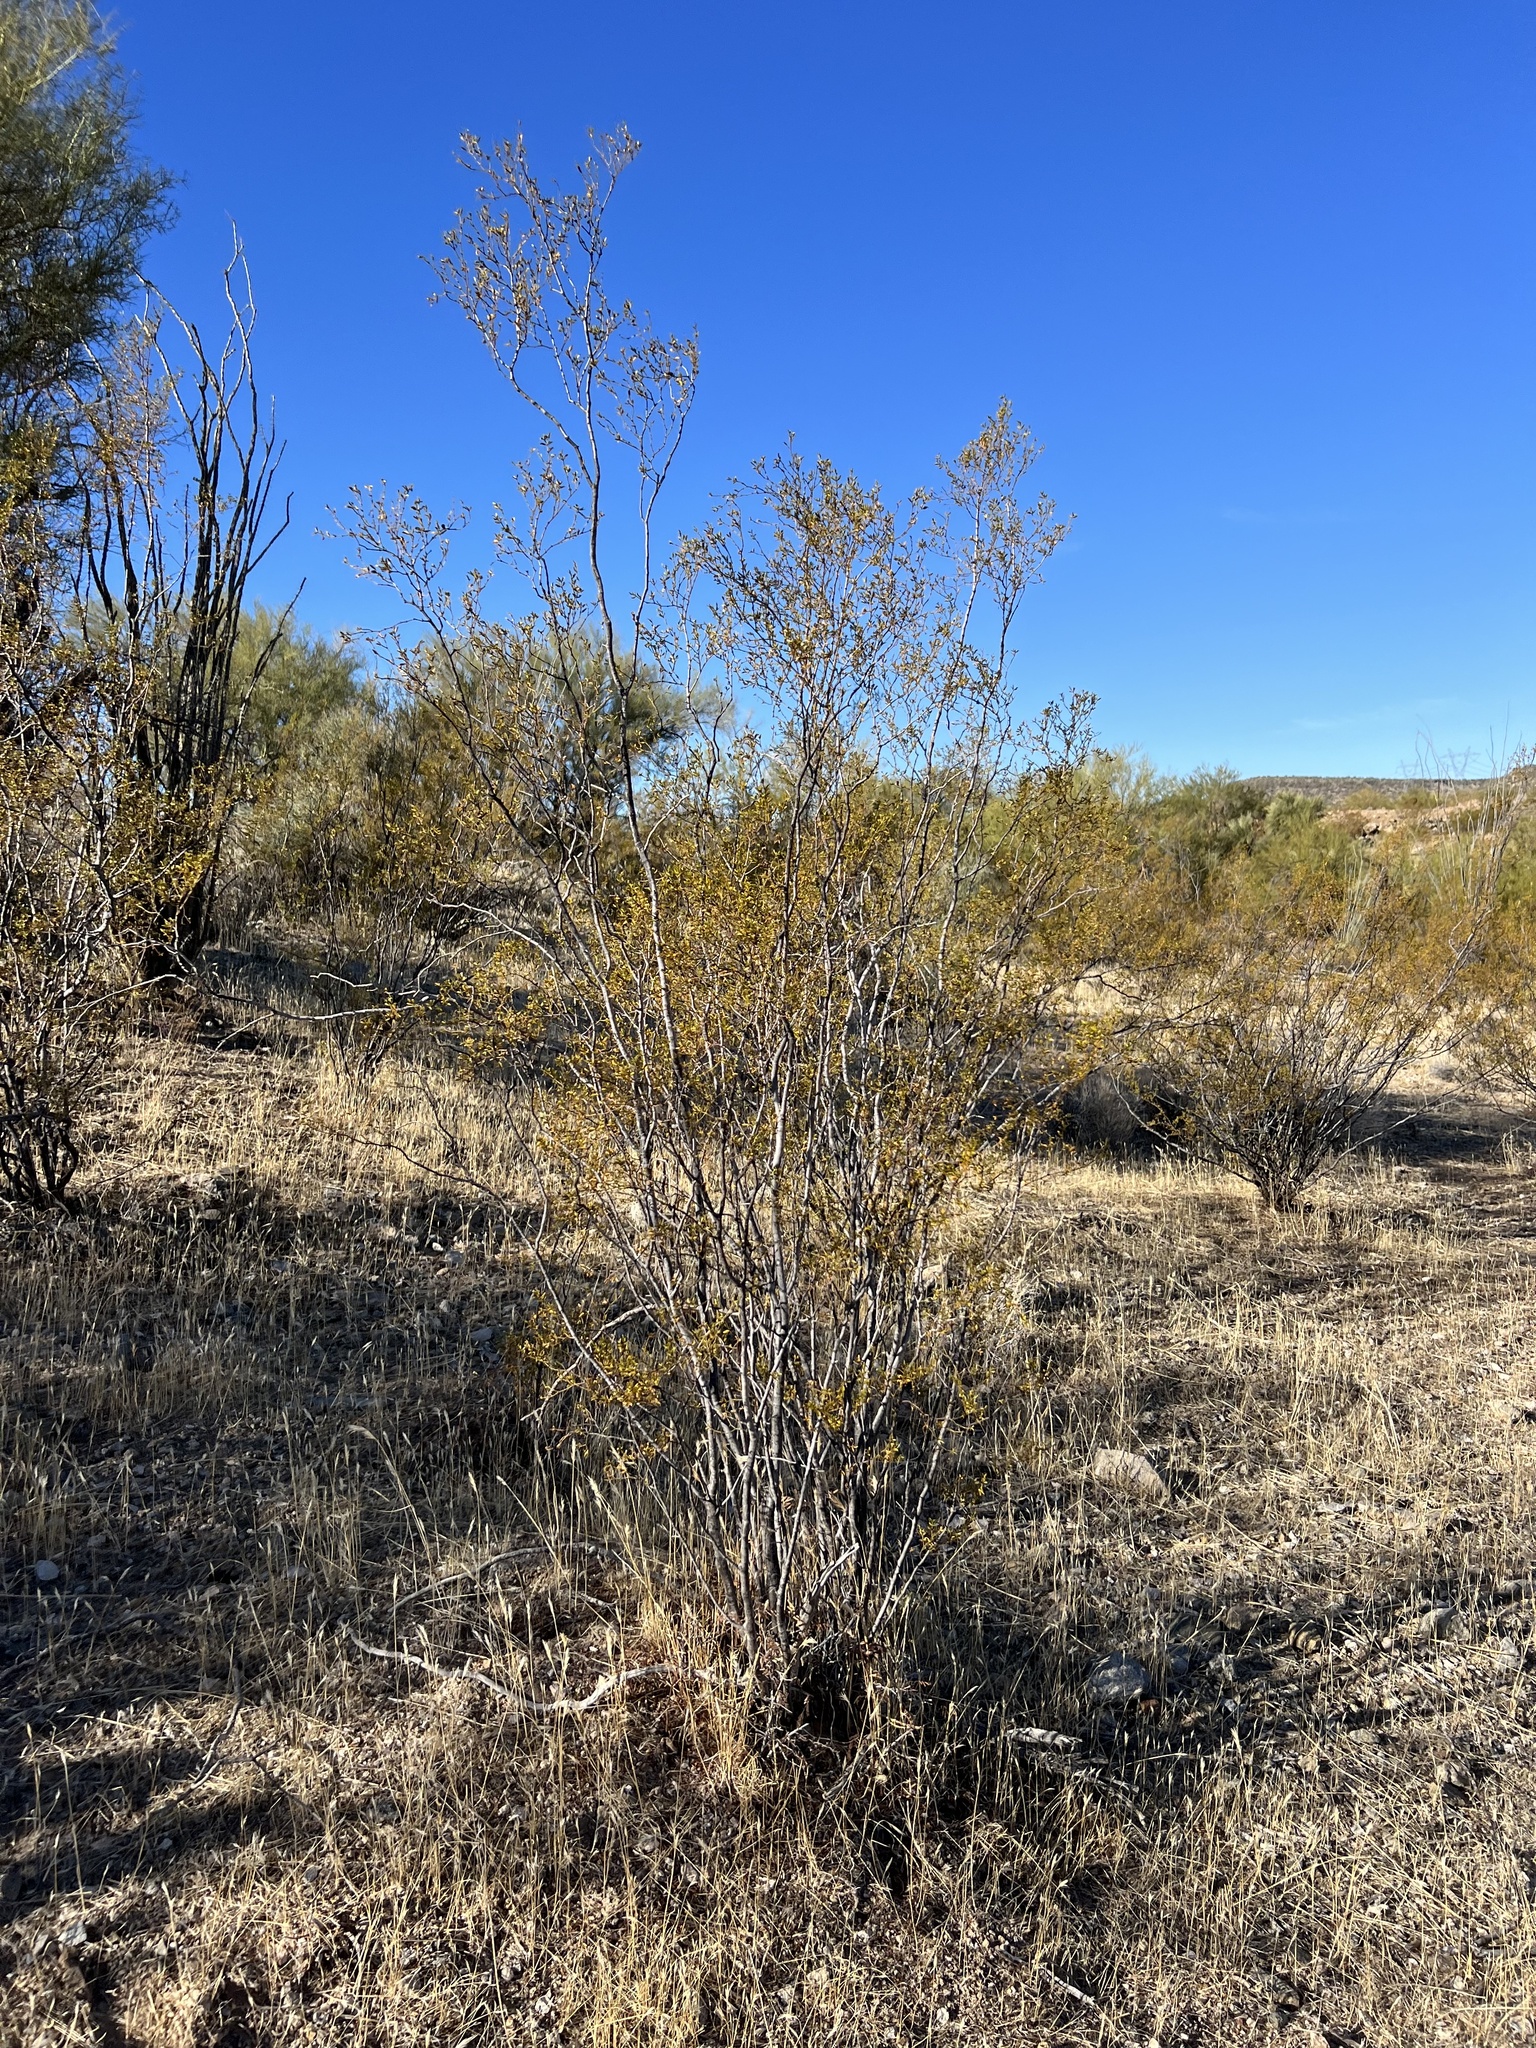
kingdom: Plantae
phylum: Tracheophyta
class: Magnoliopsida
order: Zygophyllales
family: Zygophyllaceae
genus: Larrea
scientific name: Larrea tridentata
